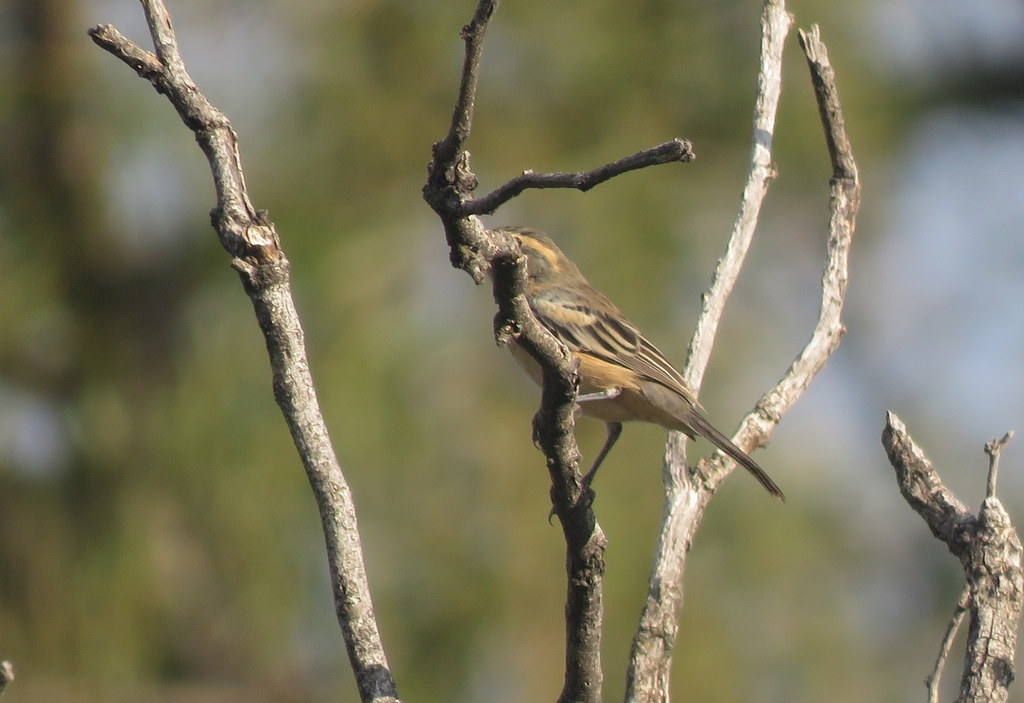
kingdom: Animalia
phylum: Chordata
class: Aves
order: Passeriformes
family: Thraupidae
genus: Poospiza
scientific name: Poospiza ornata
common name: Cinnamon warbling finch
